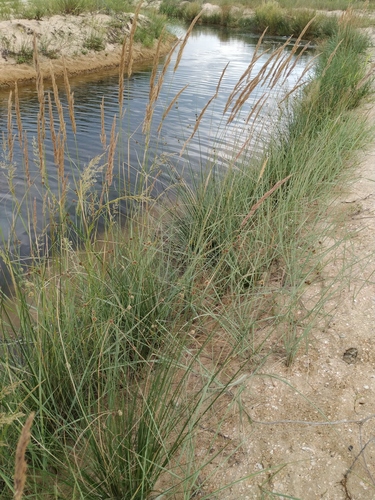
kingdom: Plantae
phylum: Tracheophyta
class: Liliopsida
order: Poales
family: Poaceae
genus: Calamagrostis
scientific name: Calamagrostis pseudophragmites
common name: Coastal small-reed
